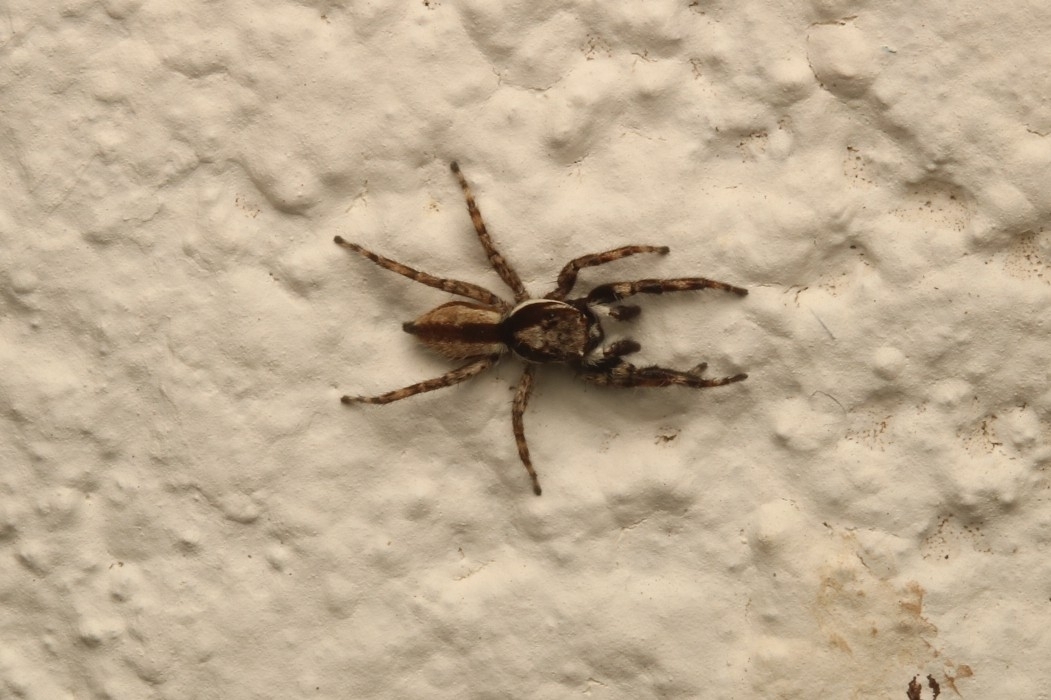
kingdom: Animalia
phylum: Arthropoda
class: Arachnida
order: Araneae
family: Salticidae
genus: Menemerus
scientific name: Menemerus bivittatus
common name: Gray wall jumper
